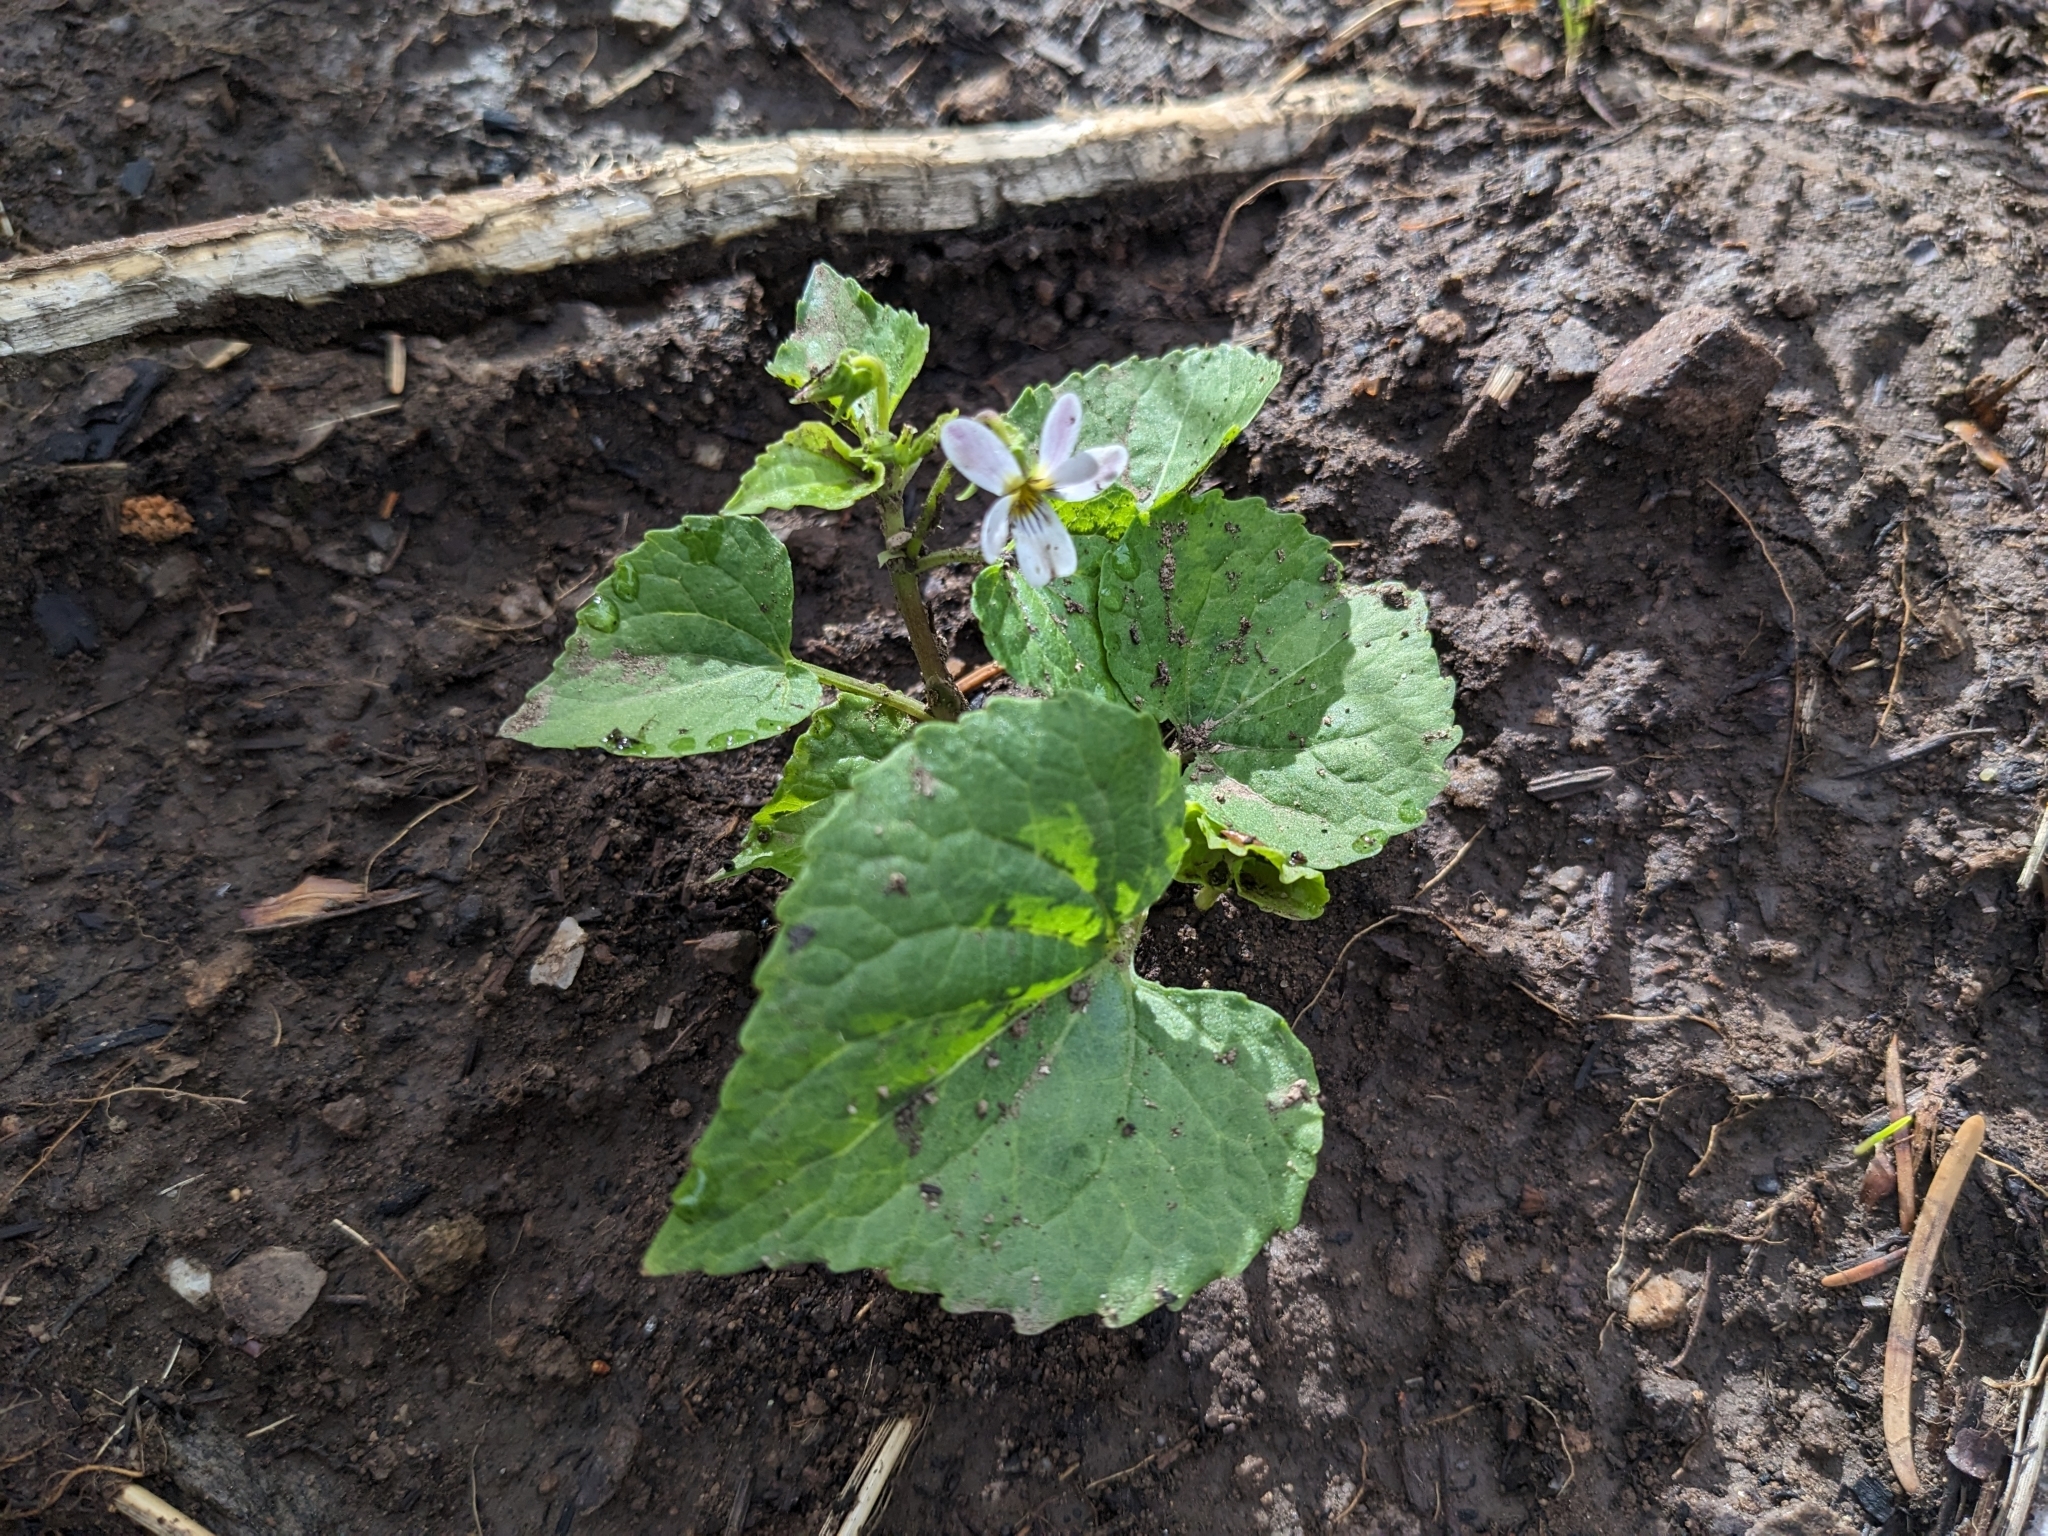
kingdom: Plantae
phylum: Tracheophyta
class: Magnoliopsida
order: Malpighiales
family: Violaceae
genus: Viola
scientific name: Viola canadensis
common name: Canada violet
